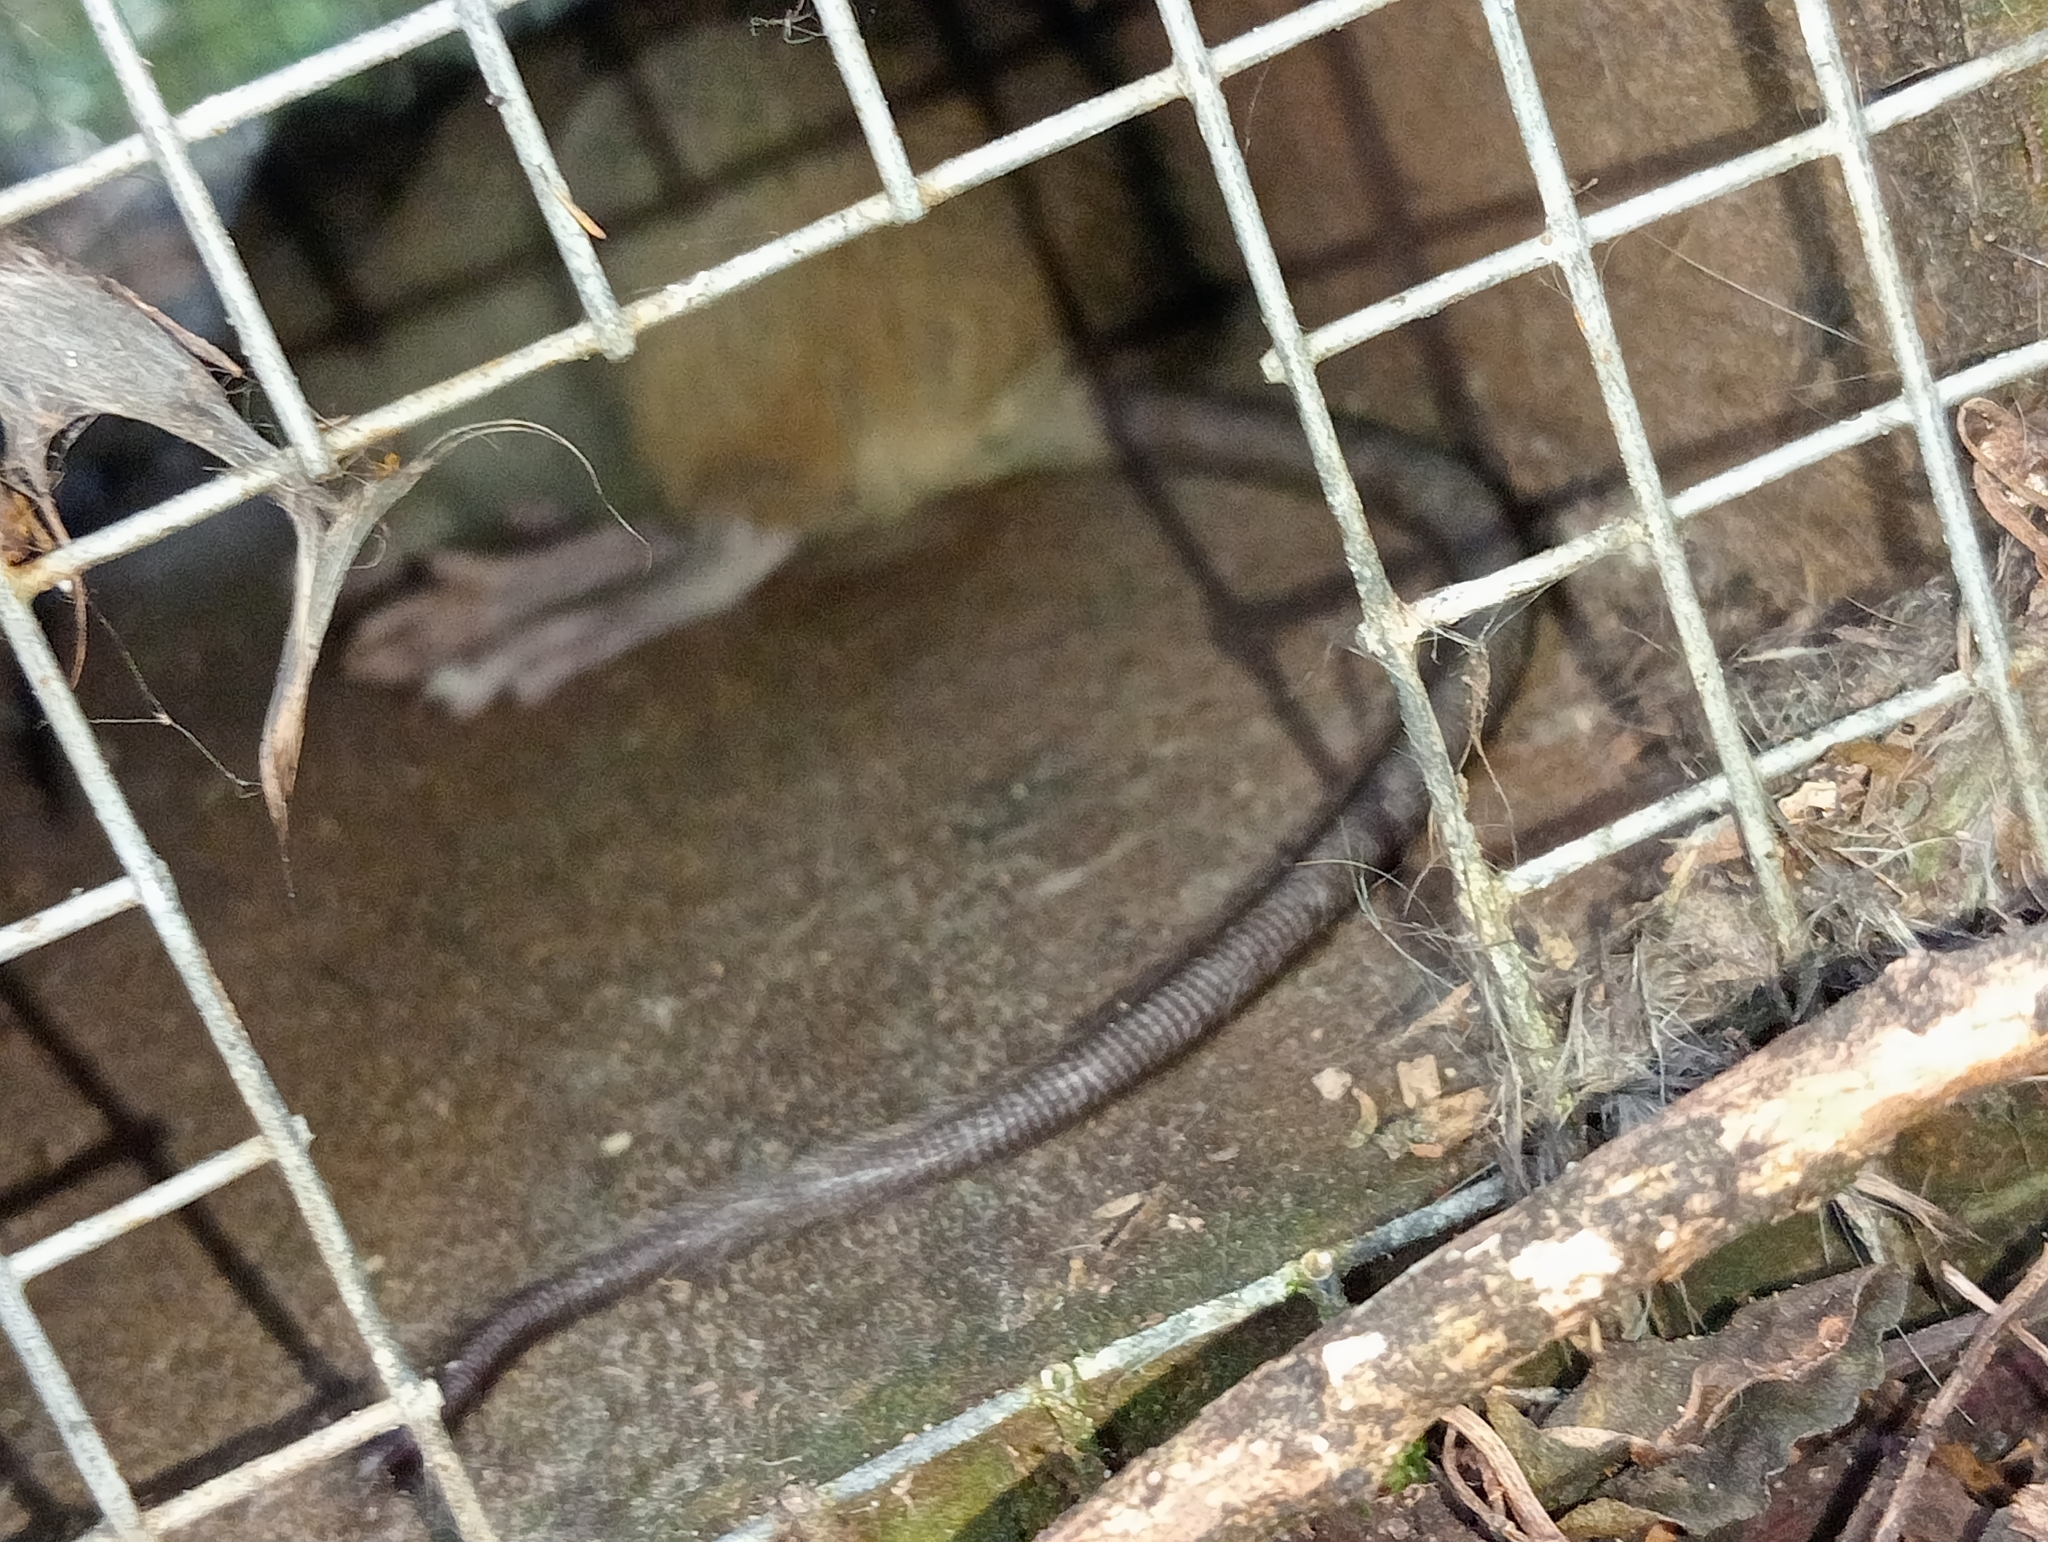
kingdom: Animalia
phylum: Chordata
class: Mammalia
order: Rodentia
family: Muridae
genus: Rattus
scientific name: Rattus rattus
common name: Black rat
